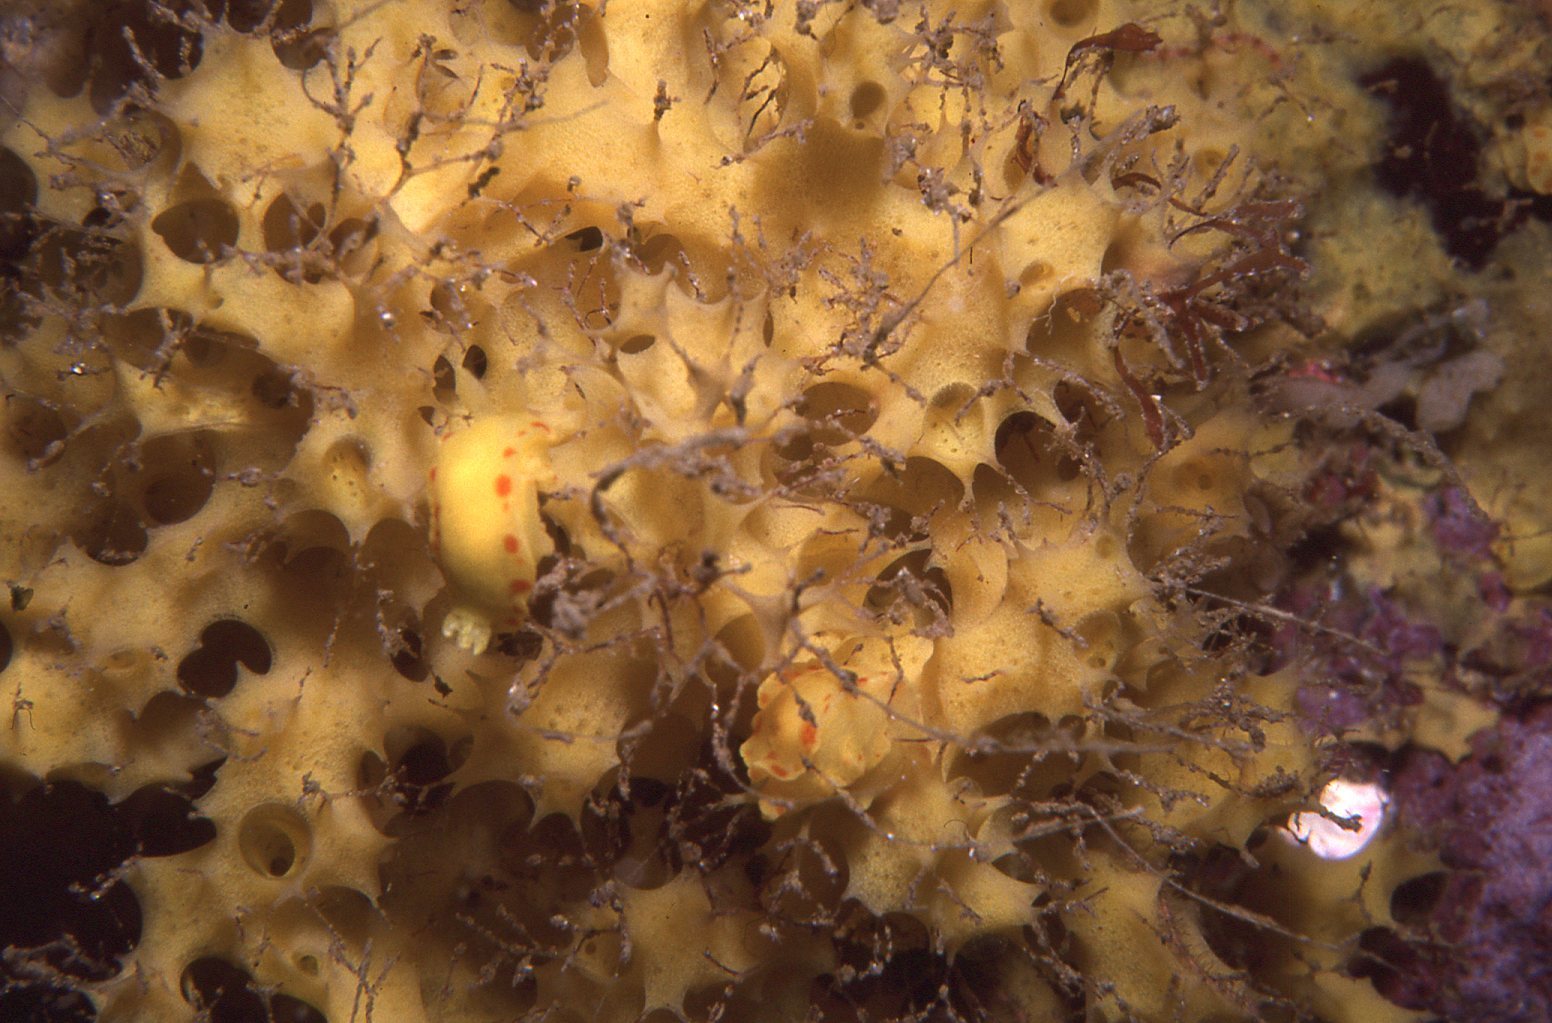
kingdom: Animalia
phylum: Mollusca
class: Gastropoda
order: Nudibranchia
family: Chromodorididae
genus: Diversidoris
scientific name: Diversidoris sulphurea
